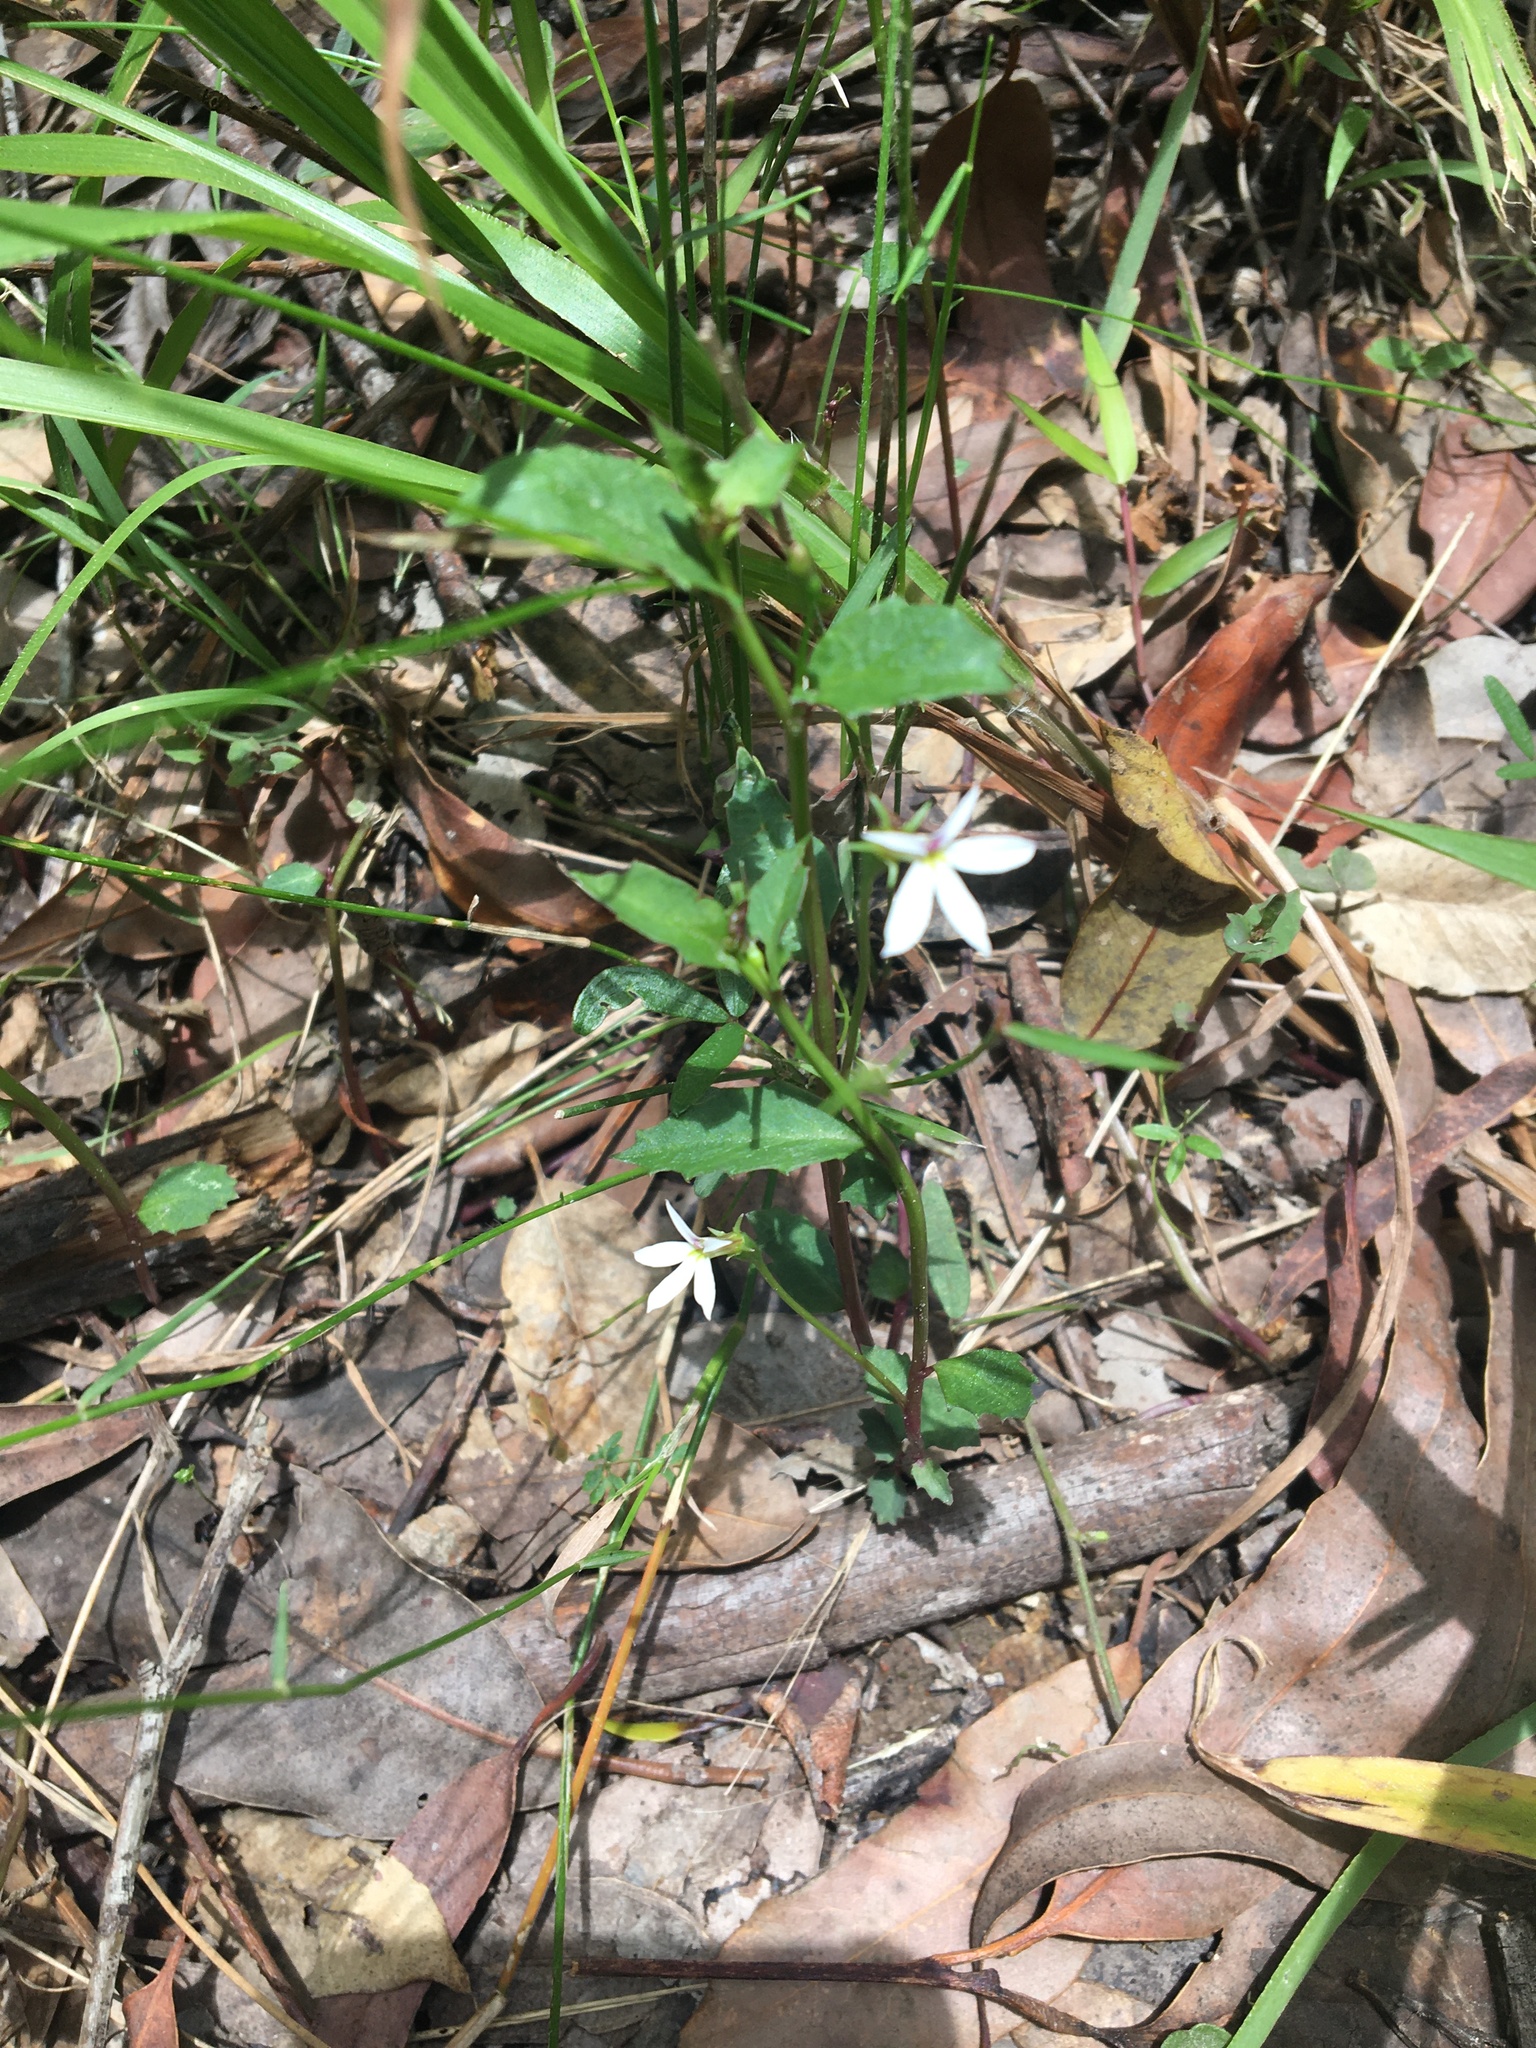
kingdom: Plantae
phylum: Tracheophyta
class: Magnoliopsida
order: Asterales
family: Campanulaceae
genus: Lobelia
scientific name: Lobelia purpurascens
